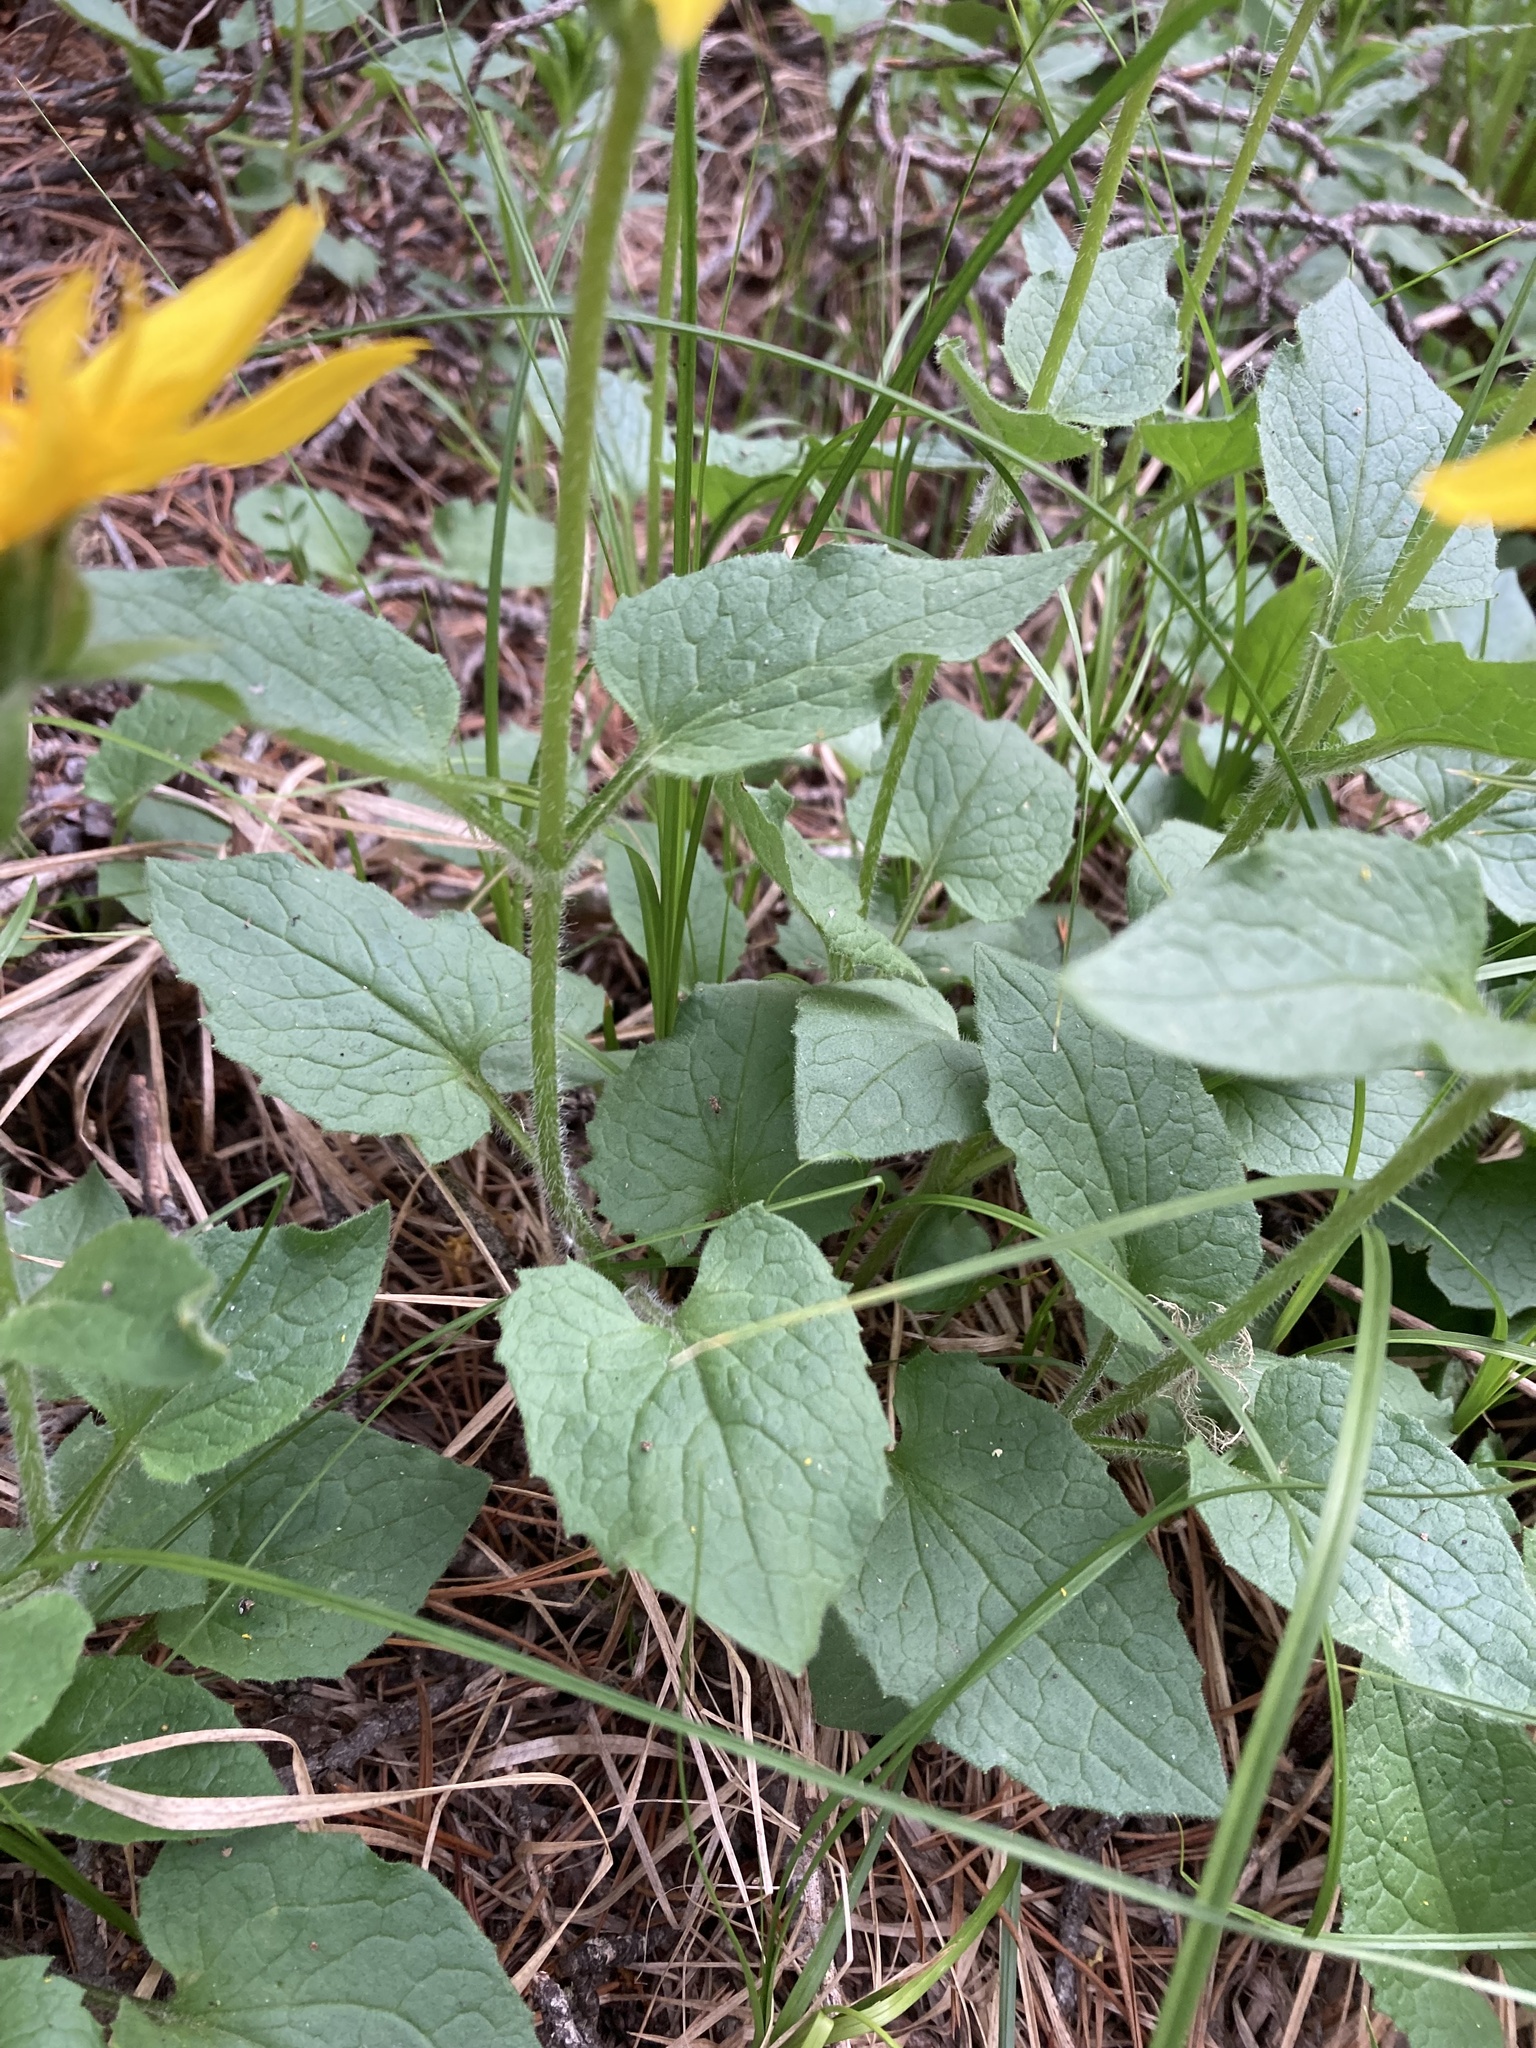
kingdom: Plantae
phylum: Tracheophyta
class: Magnoliopsida
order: Asterales
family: Asteraceae
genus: Arnica
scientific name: Arnica cordifolia
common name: Heart-leaf arnica
